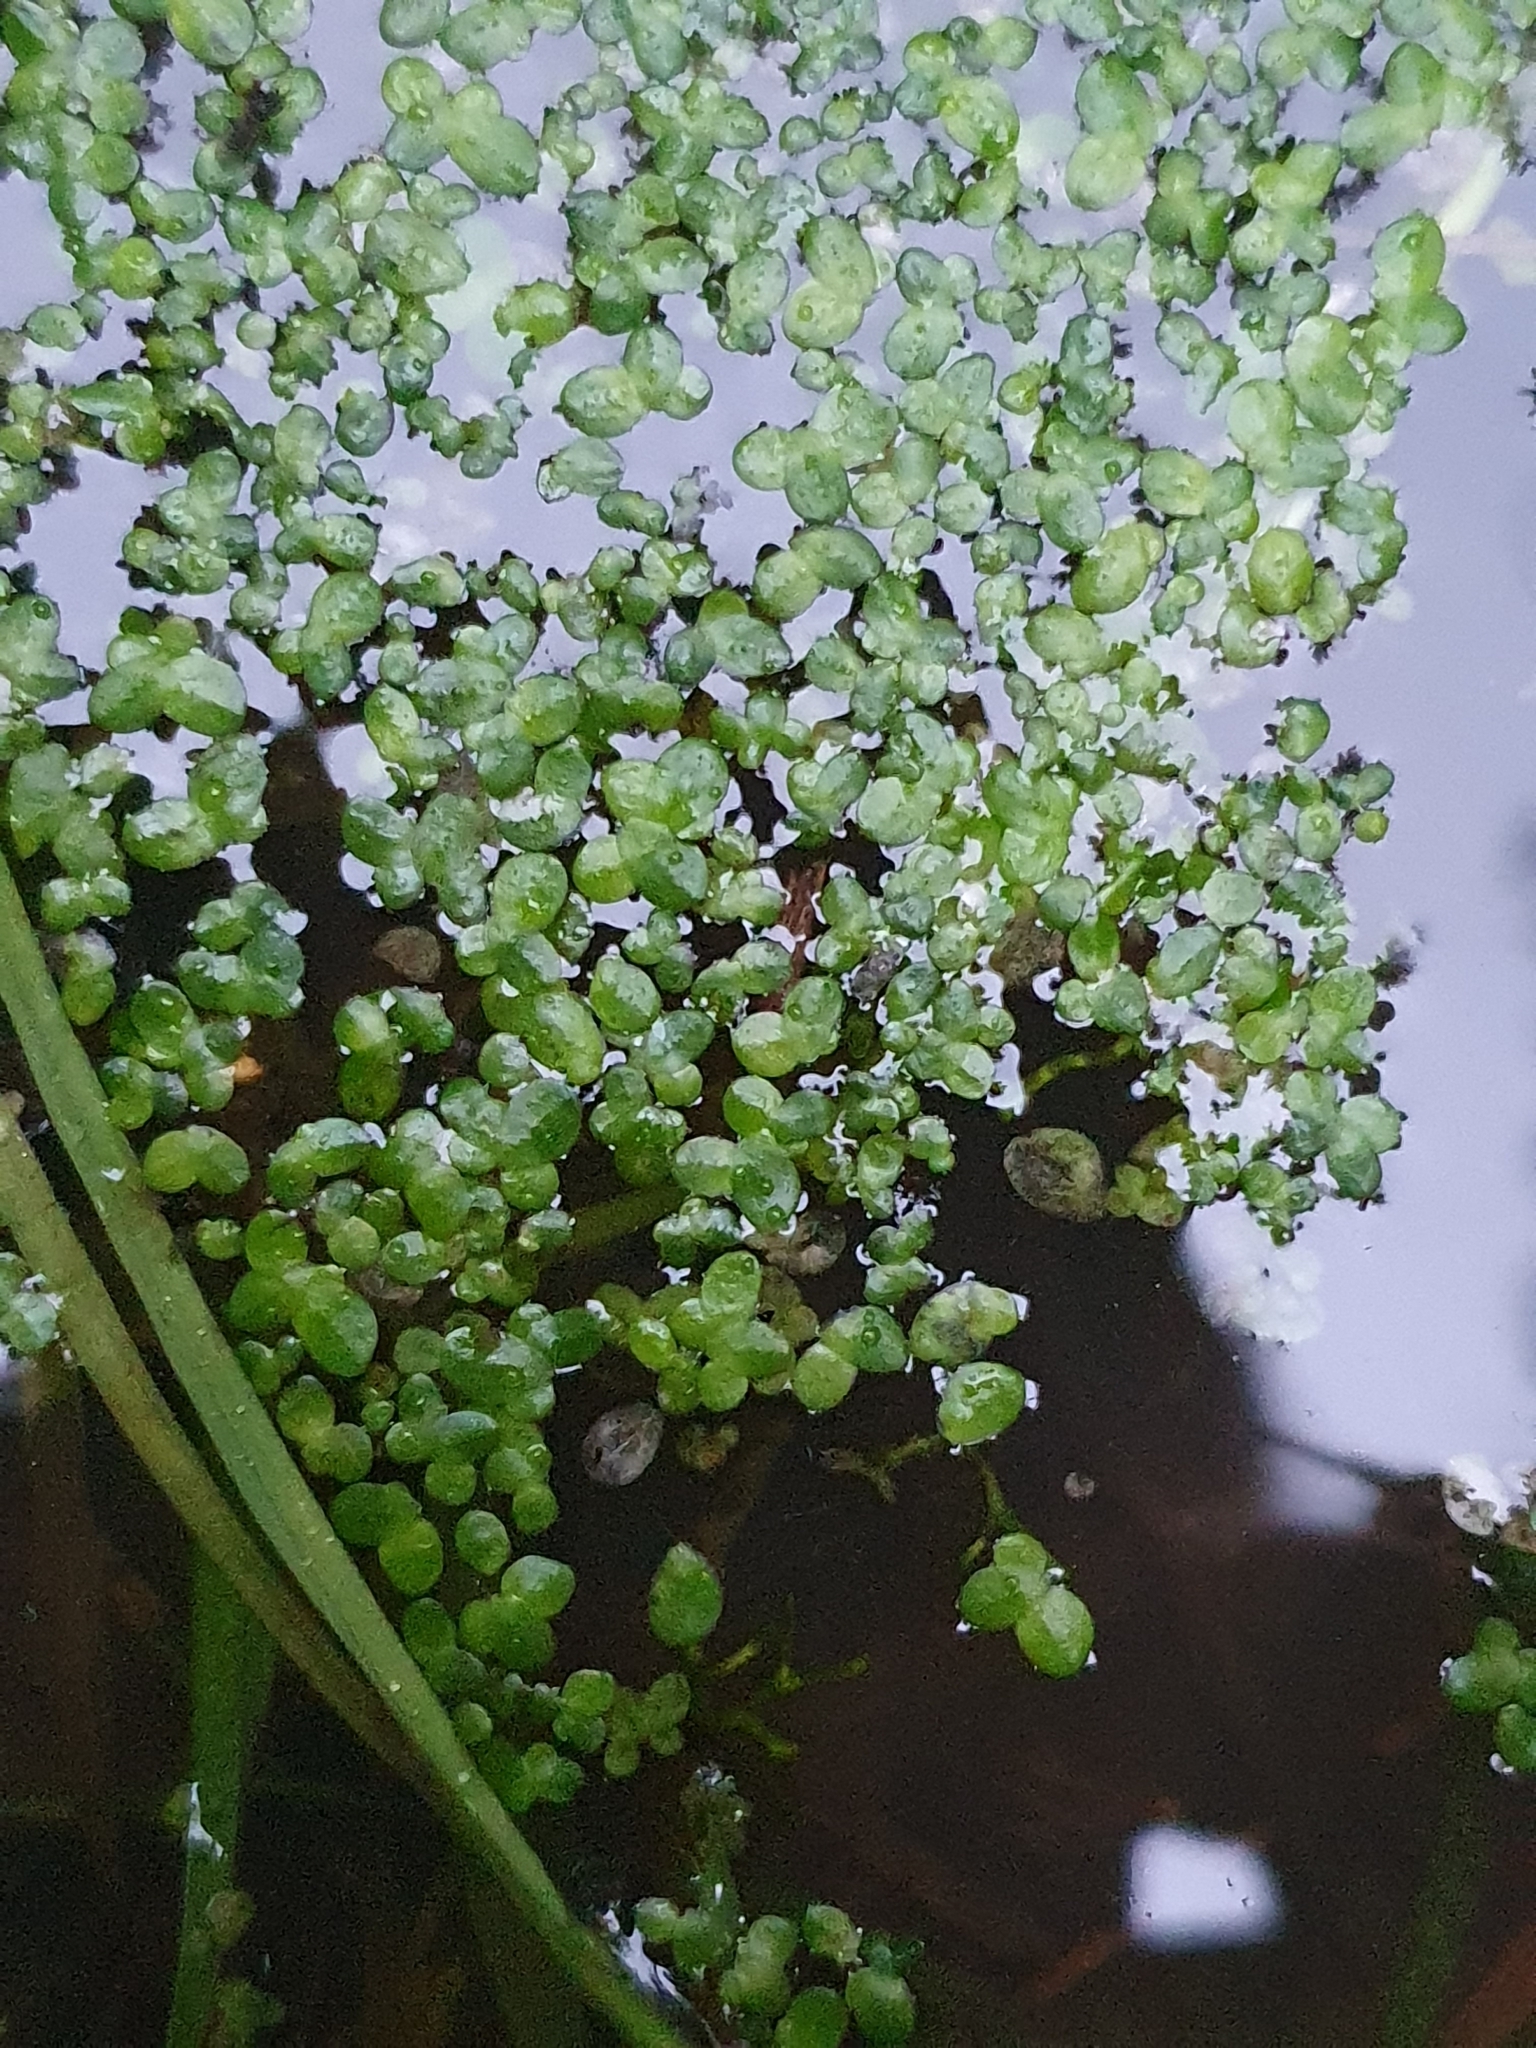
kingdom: Plantae
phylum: Tracheophyta
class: Liliopsida
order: Alismatales
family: Araceae
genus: Lemna
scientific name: Lemna minor
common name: Common duckweed
